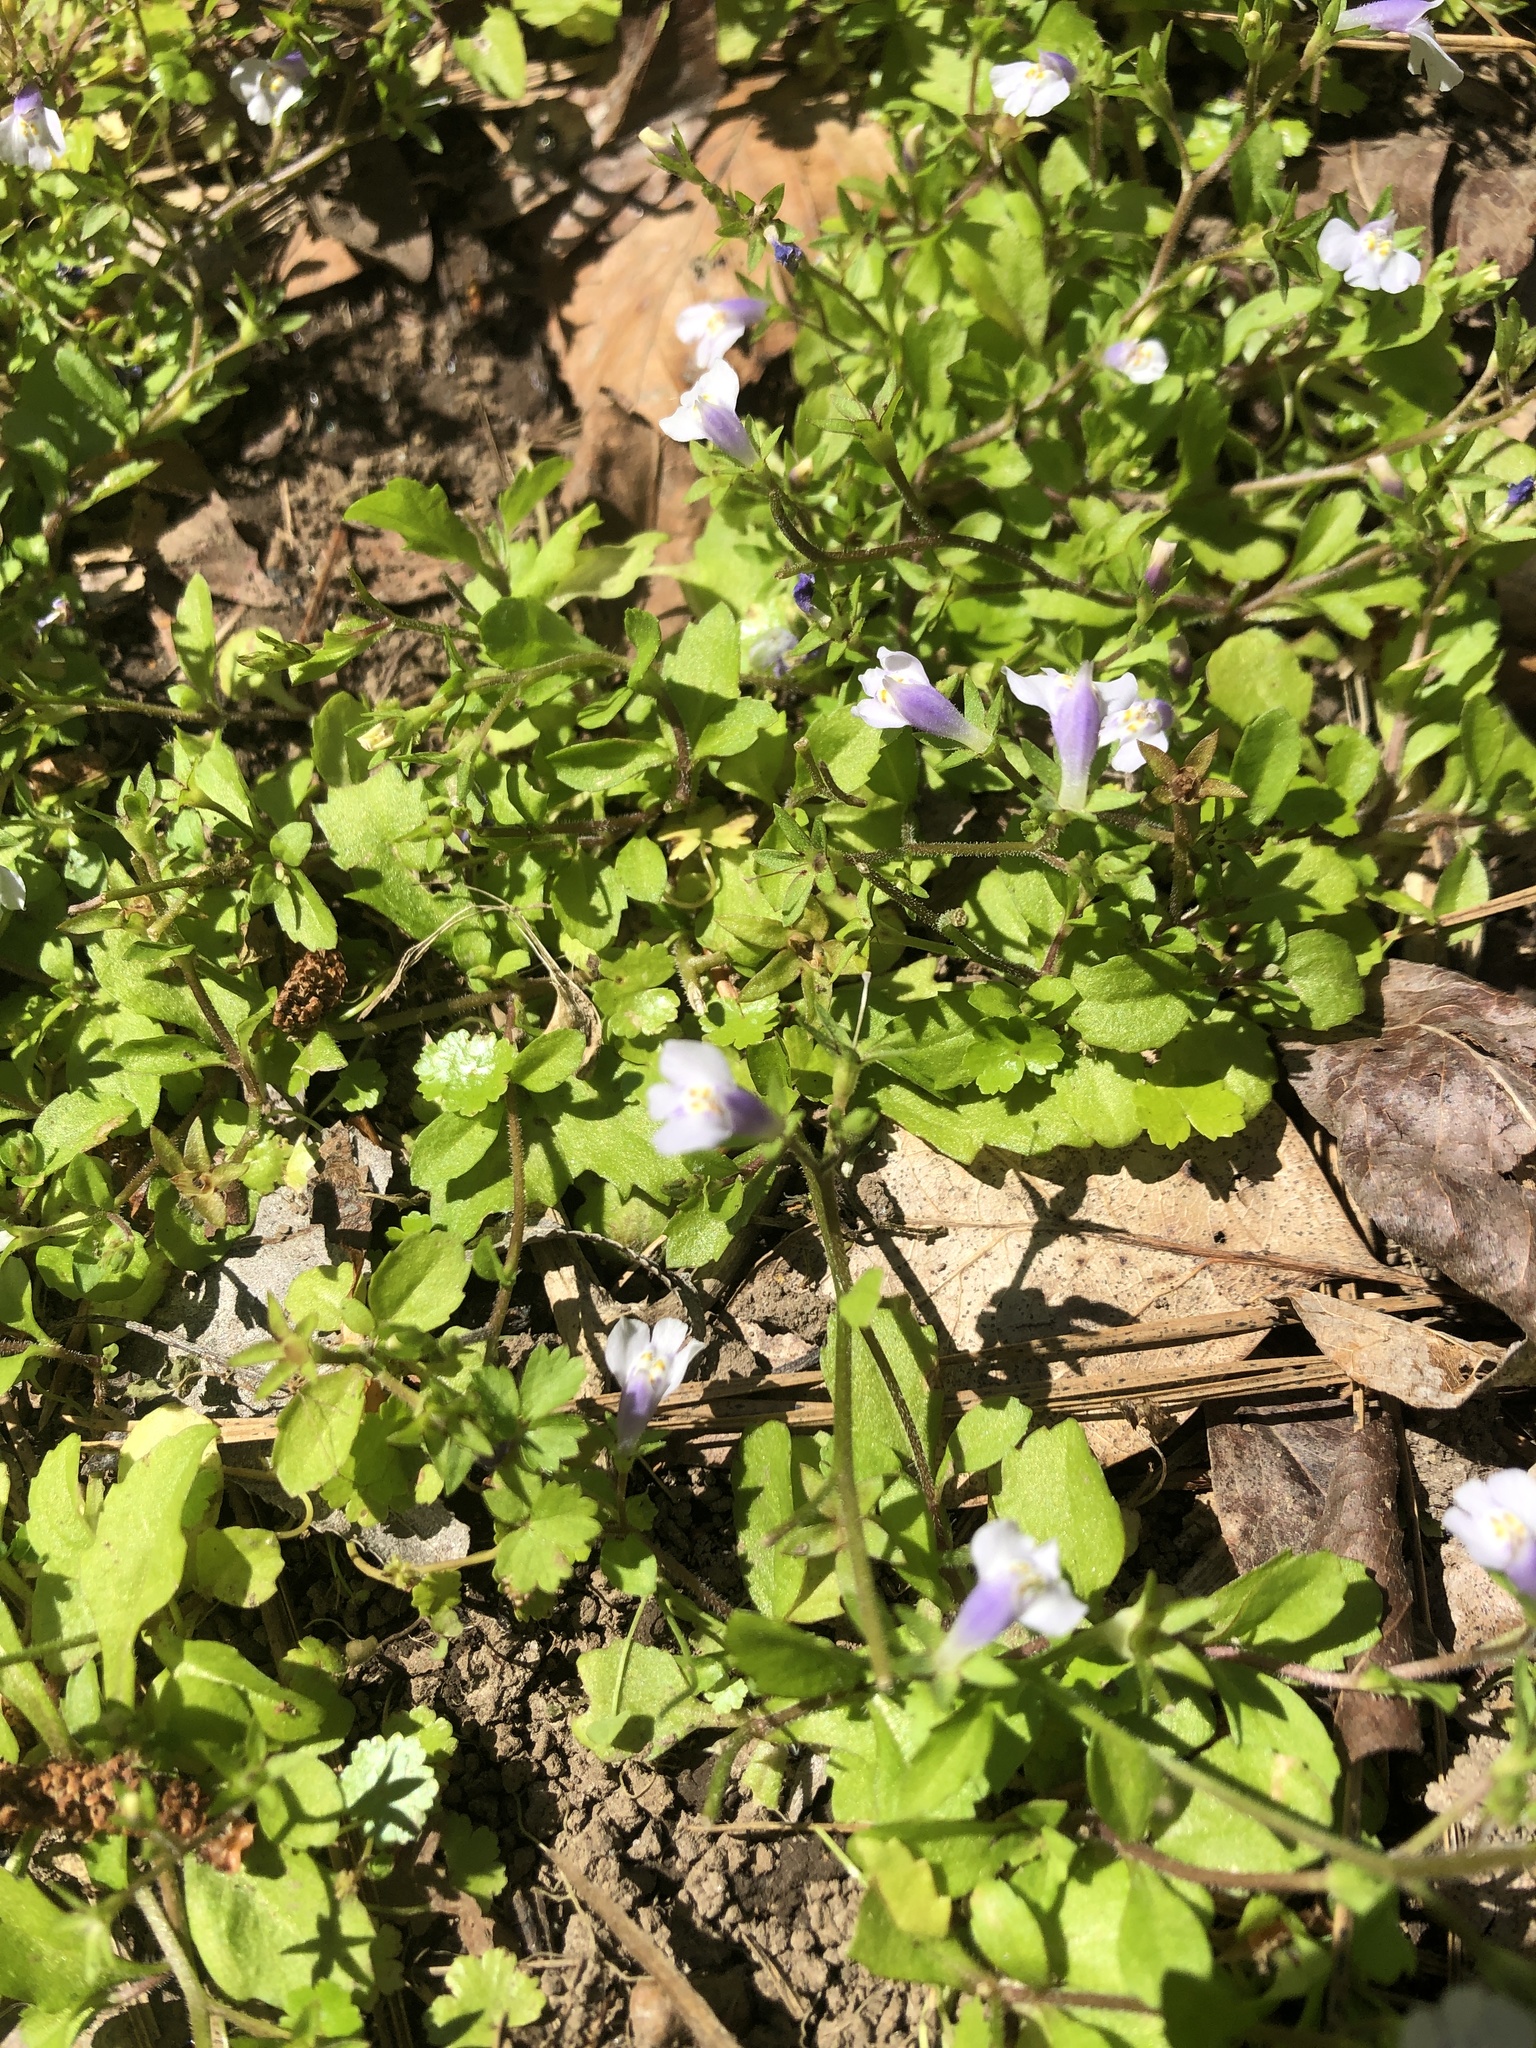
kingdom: Plantae
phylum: Tracheophyta
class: Magnoliopsida
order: Lamiales
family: Mazaceae
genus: Mazus
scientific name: Mazus pumilus
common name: Japanese mazus
